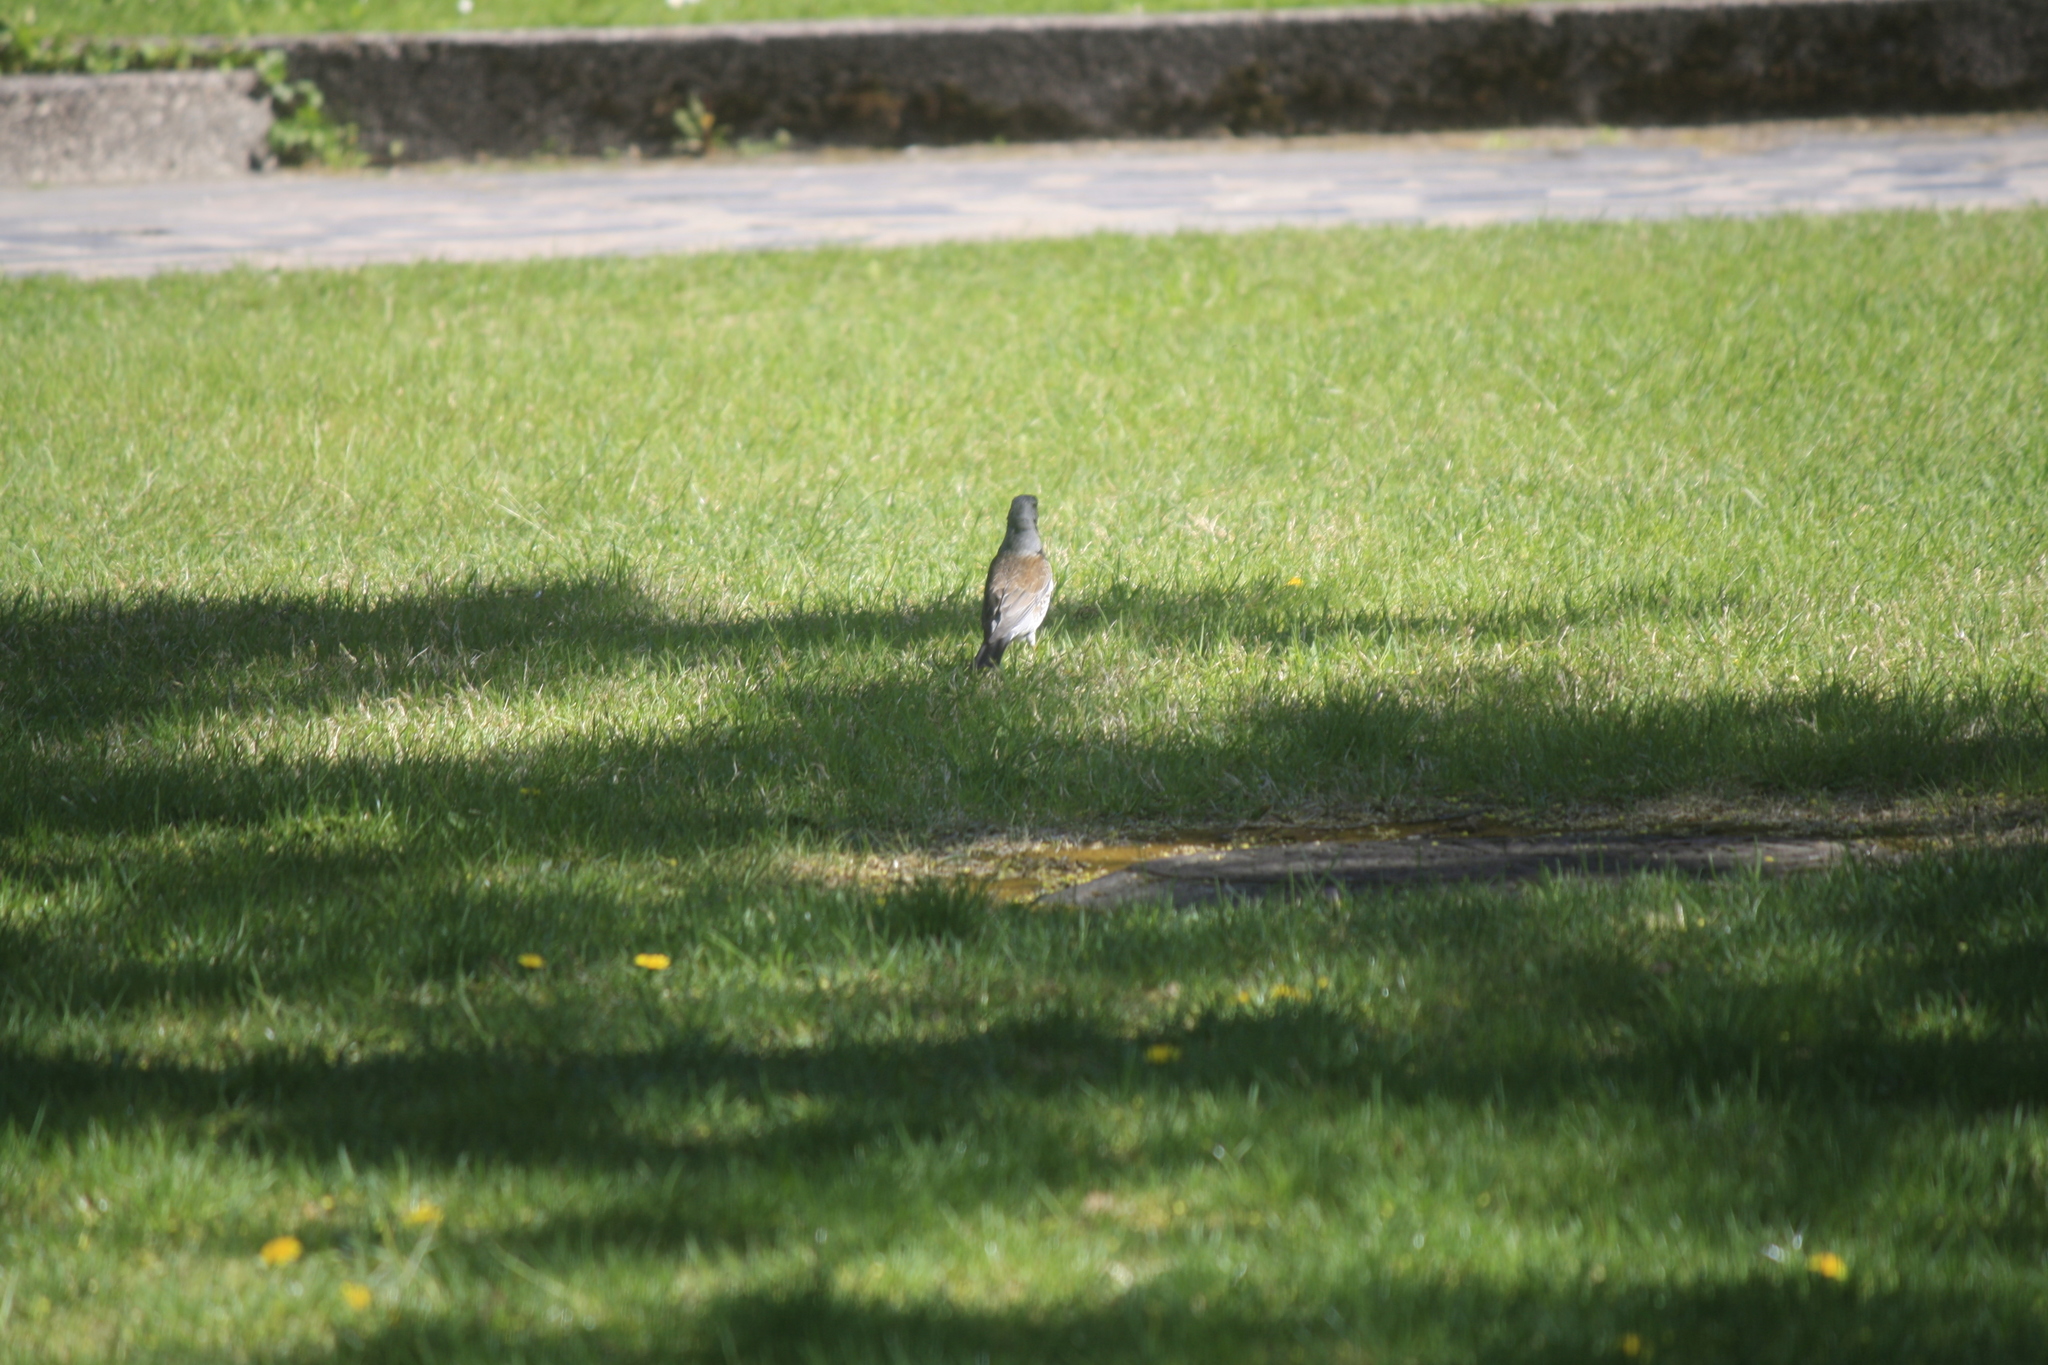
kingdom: Animalia
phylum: Chordata
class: Aves
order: Passeriformes
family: Turdidae
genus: Turdus
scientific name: Turdus pilaris
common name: Fieldfare
